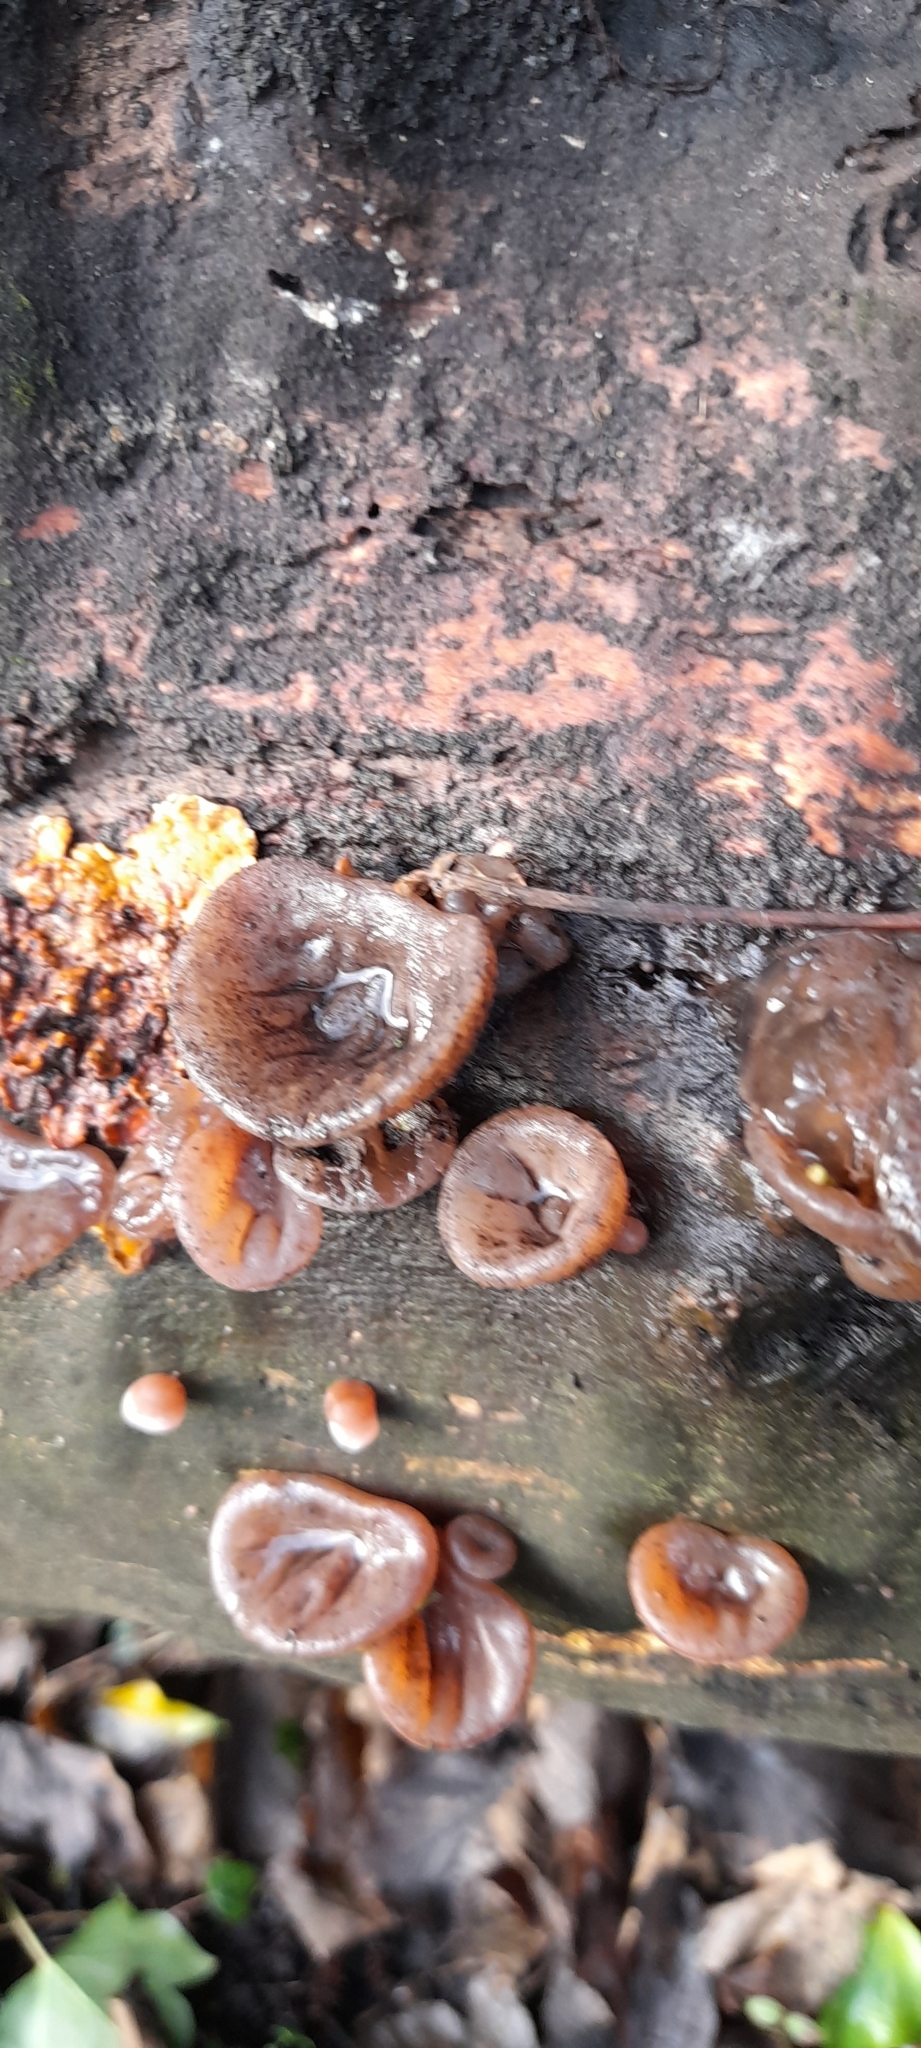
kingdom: Fungi
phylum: Basidiomycota
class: Agaricomycetes
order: Auriculariales
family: Auriculariaceae
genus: Auricularia
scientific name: Auricularia auricula-judae
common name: Jelly ear
